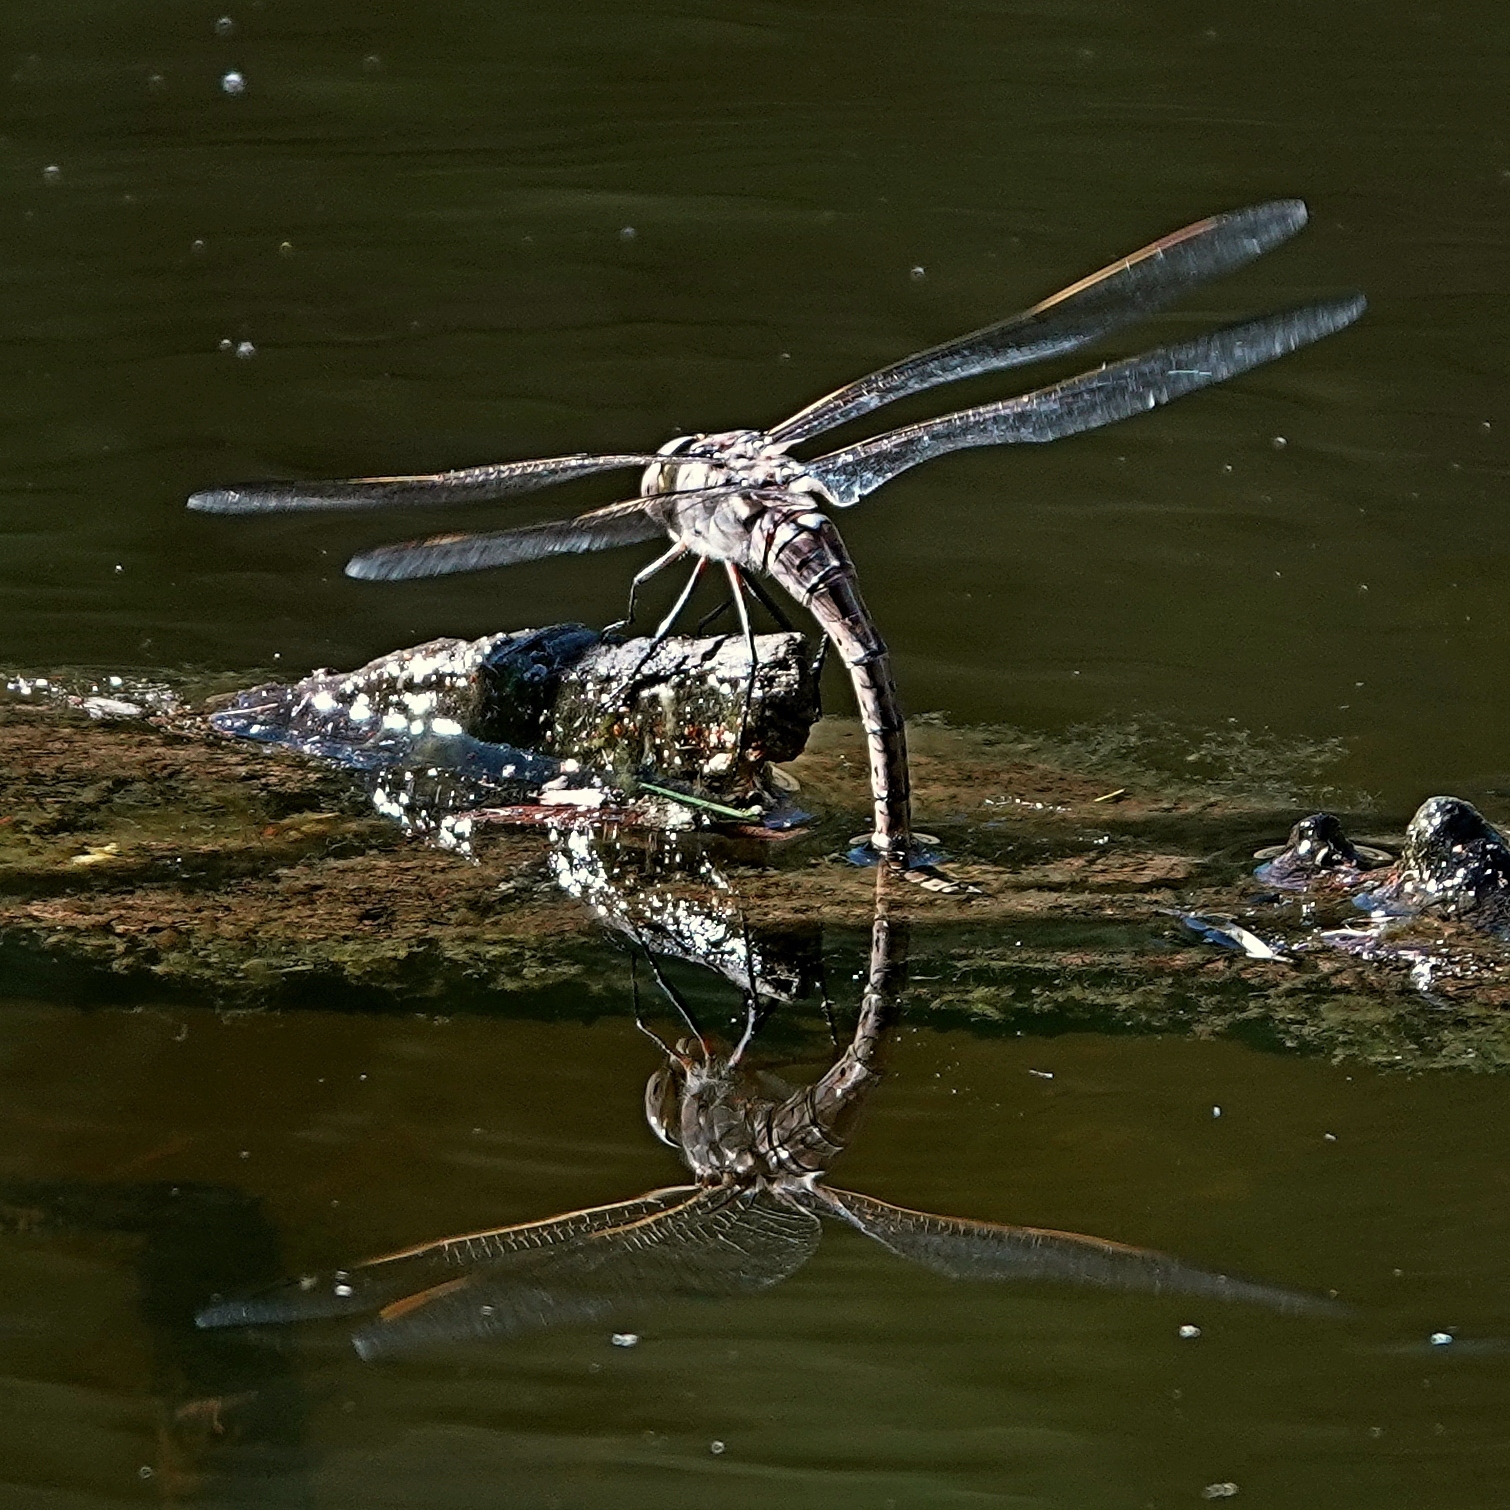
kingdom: Animalia
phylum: Arthropoda
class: Insecta
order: Odonata
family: Aeshnidae
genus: Anax
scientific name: Anax papuensis
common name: Australian emperor
